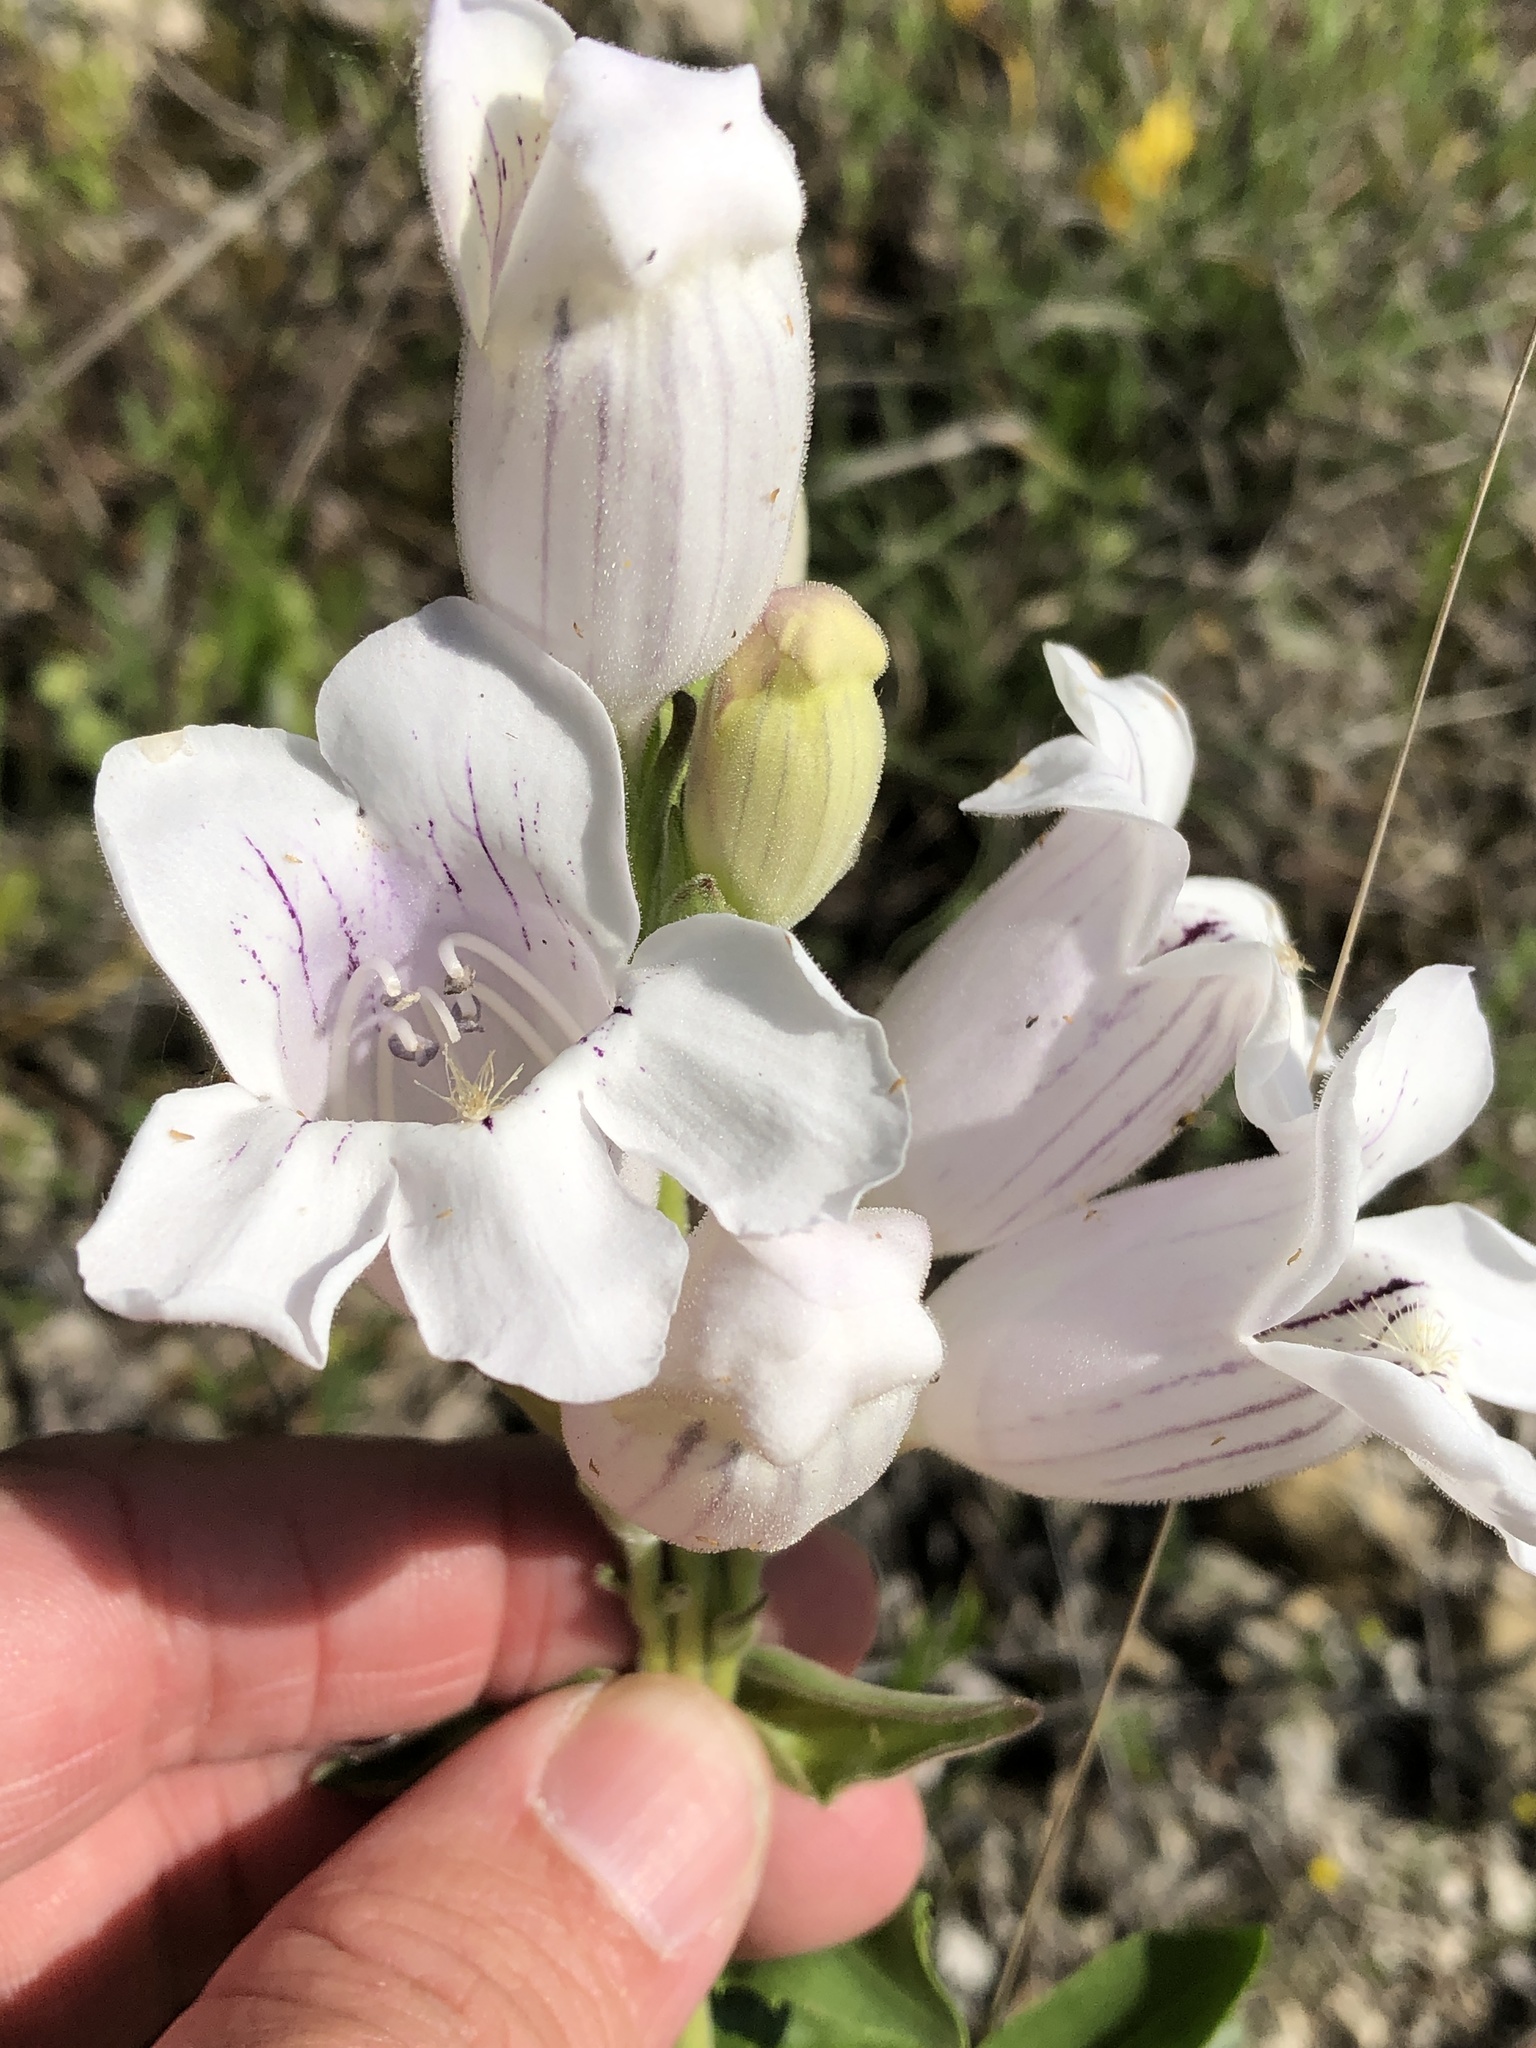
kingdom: Plantae
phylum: Tracheophyta
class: Magnoliopsida
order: Lamiales
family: Plantaginaceae
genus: Penstemon
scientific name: Penstemon cobaea
